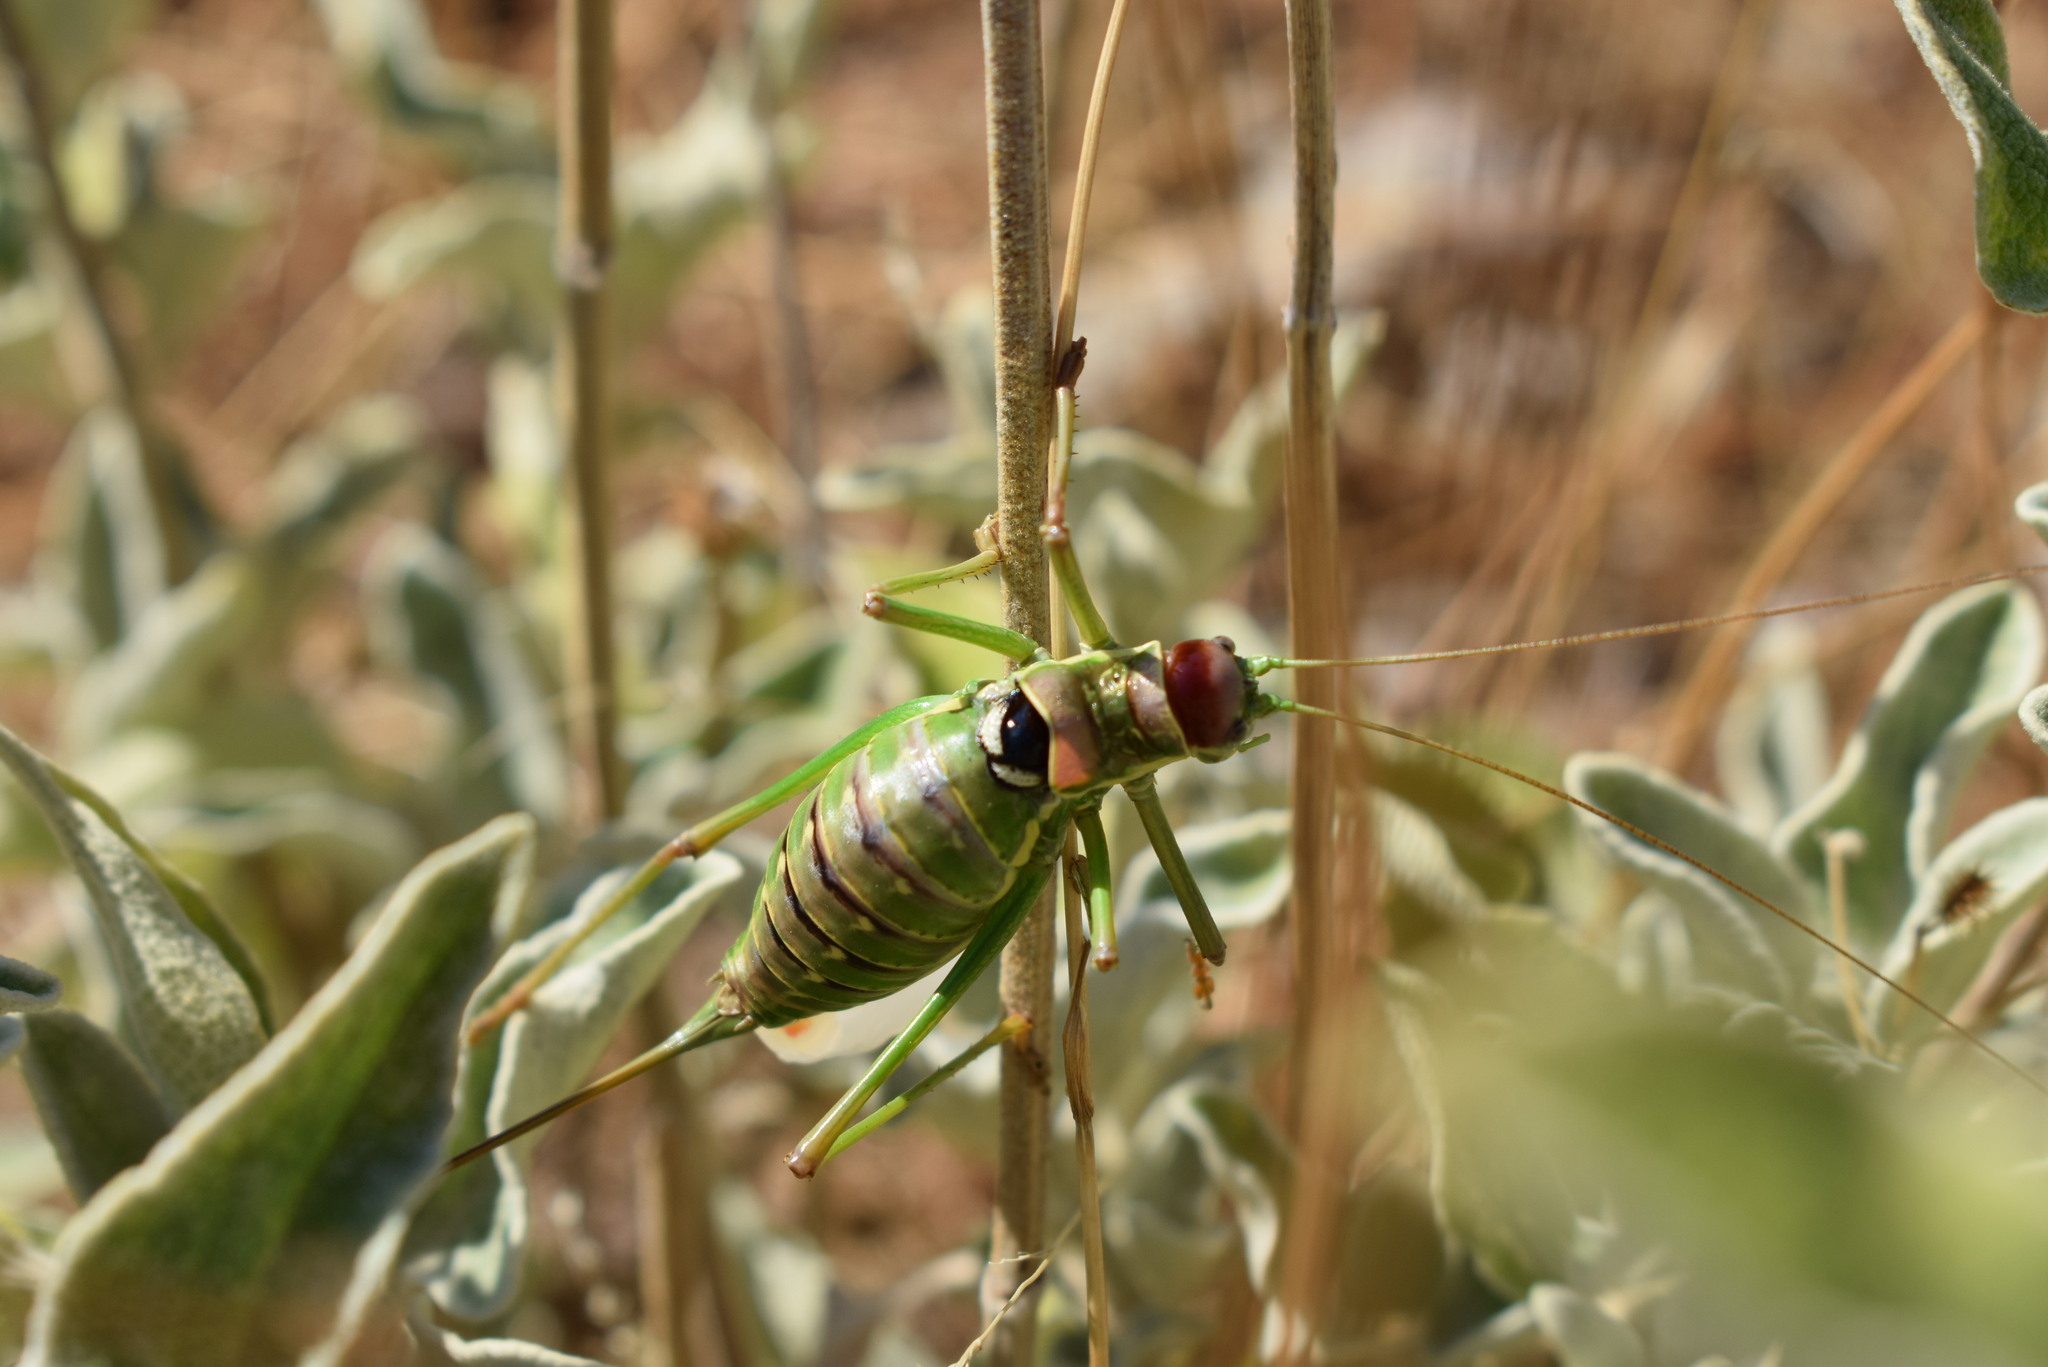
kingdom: Animalia
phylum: Arthropoda
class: Insecta
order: Orthoptera
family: Tettigoniidae
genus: Dinarippiger
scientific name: Dinarippiger discoidalis
